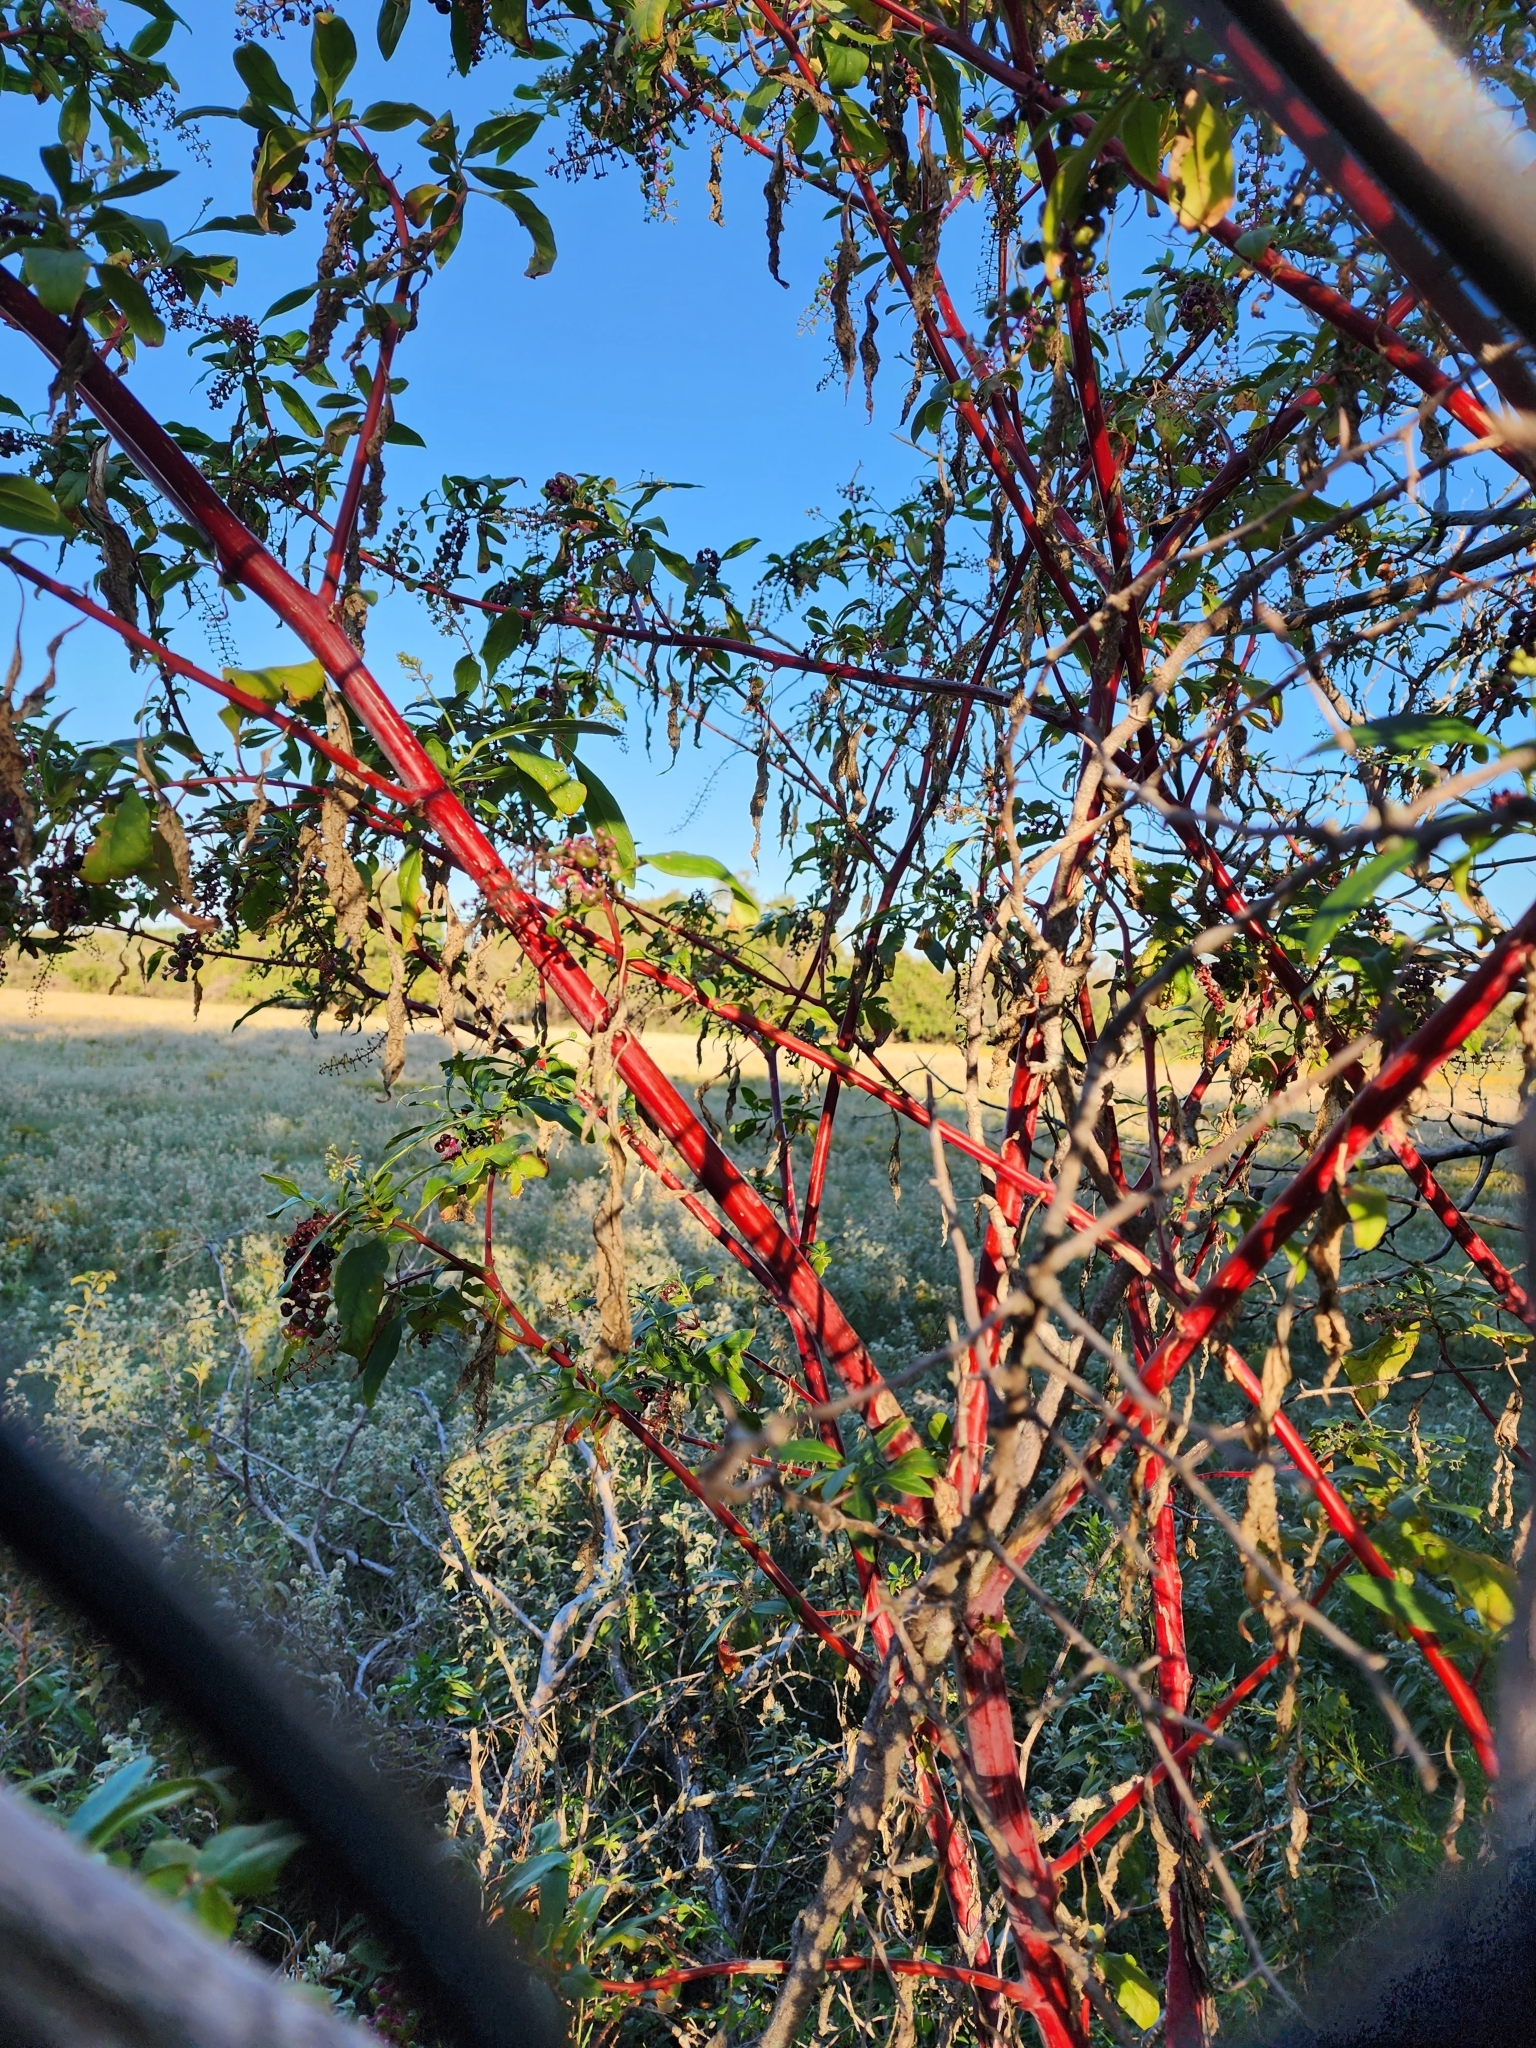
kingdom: Plantae
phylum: Tracheophyta
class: Magnoliopsida
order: Caryophyllales
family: Phytolaccaceae
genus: Phytolacca
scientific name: Phytolacca americana
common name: American pokeweed
